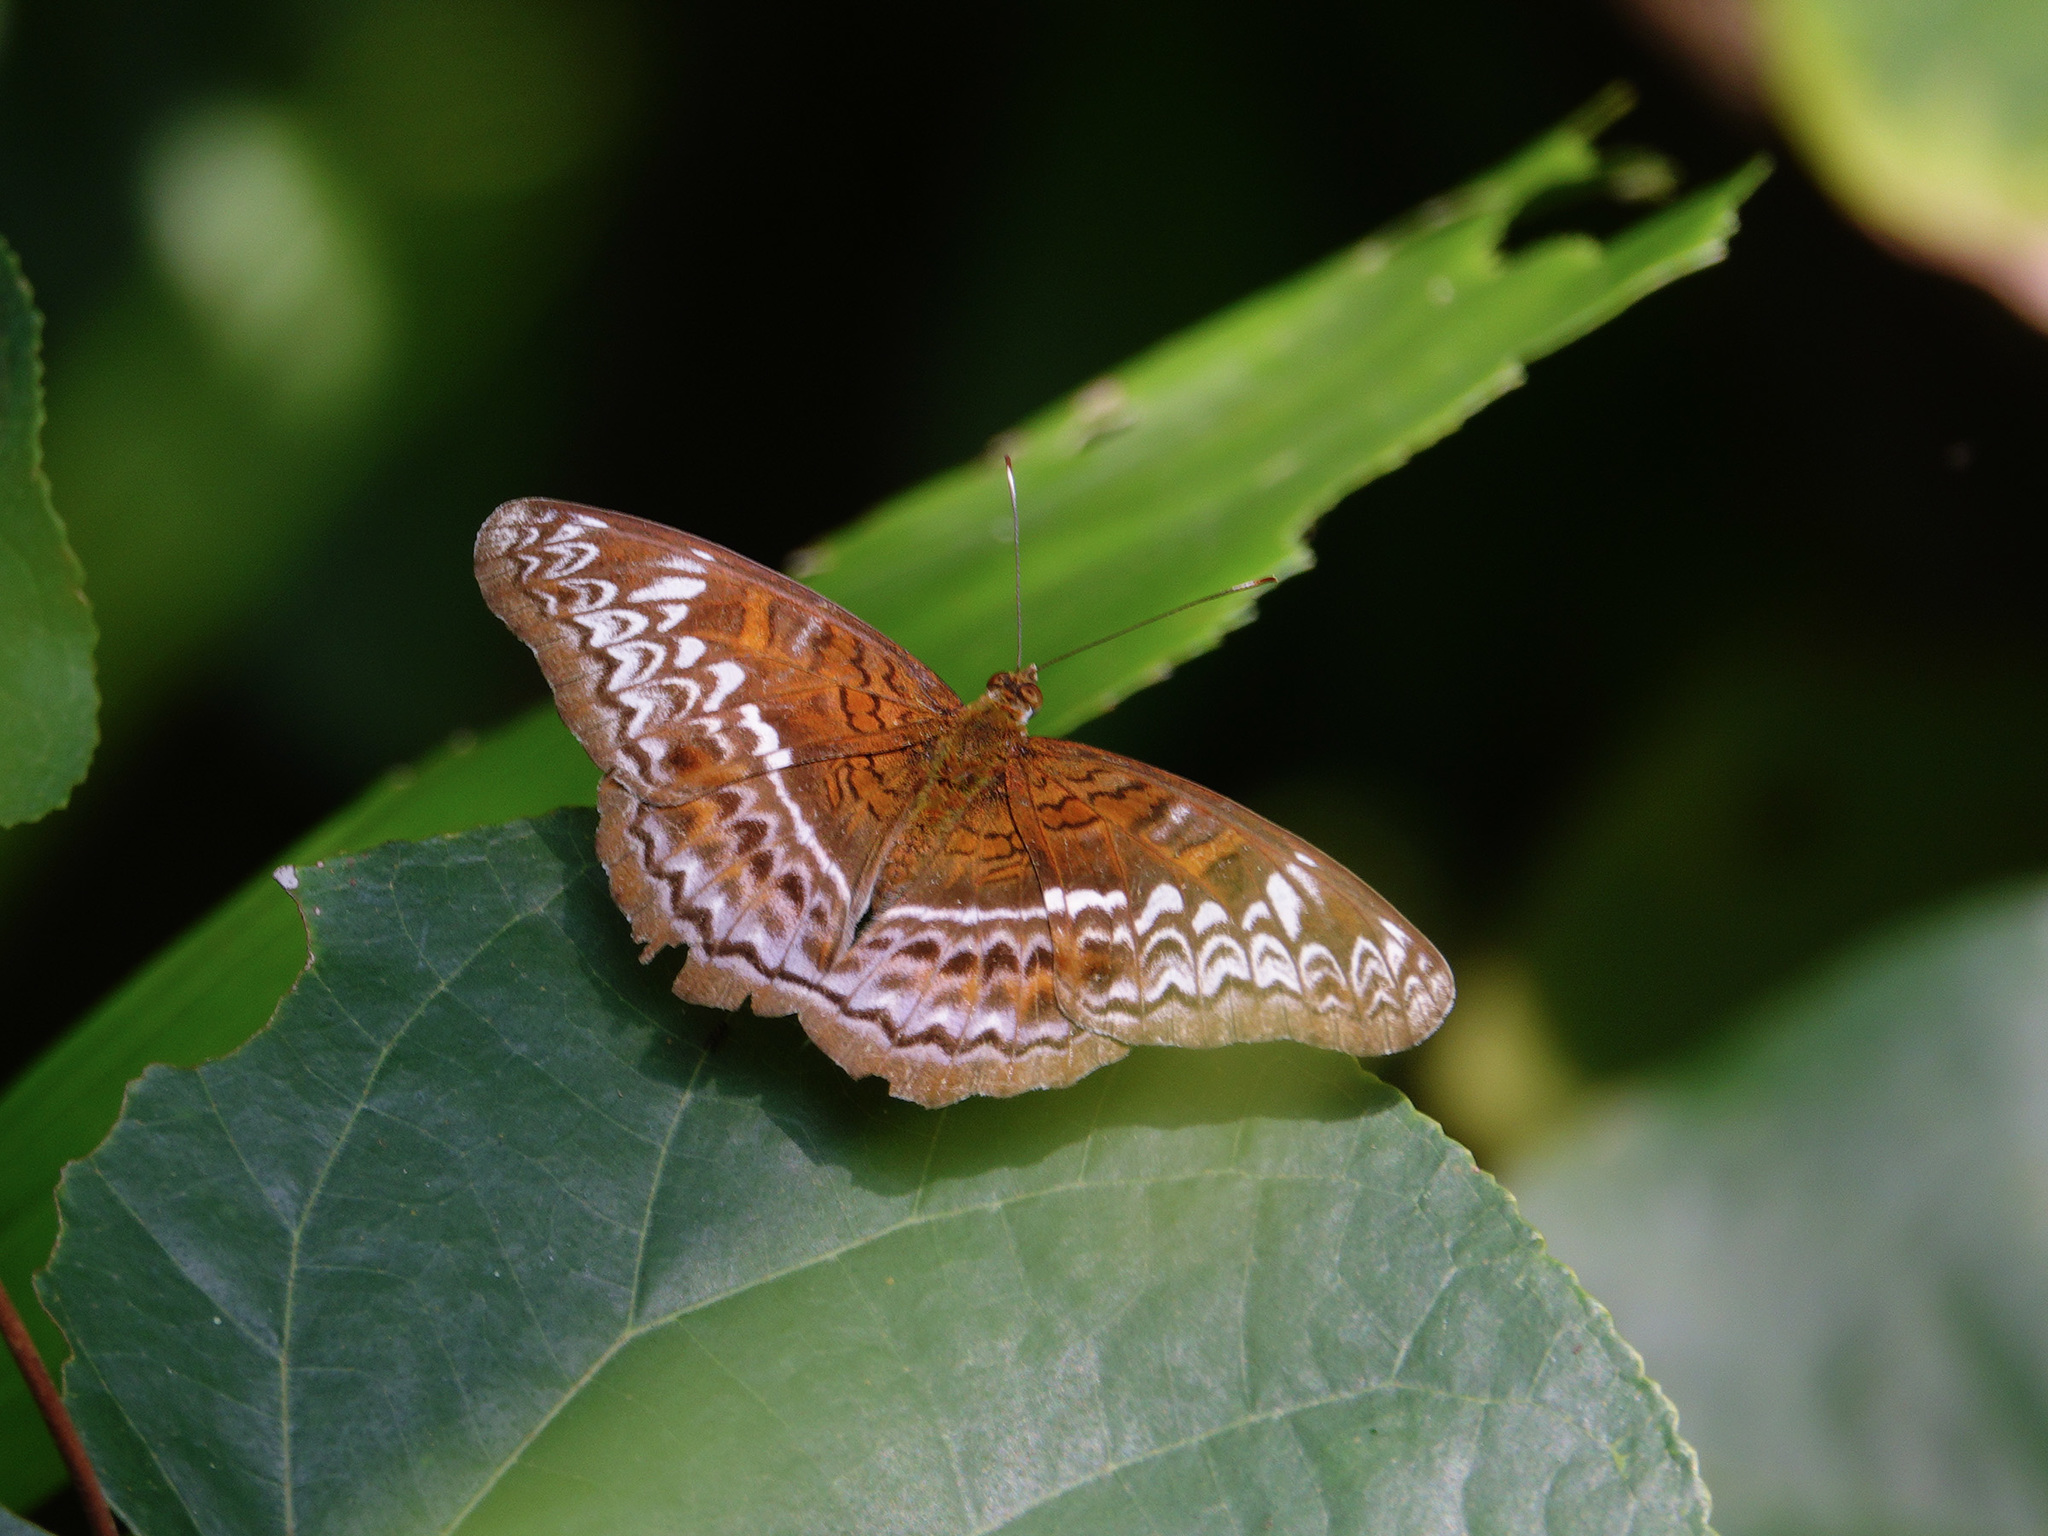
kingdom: Animalia
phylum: Arthropoda
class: Insecta
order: Lepidoptera
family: Nymphalidae
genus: Lebadea
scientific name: Lebadea martha
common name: Knight
